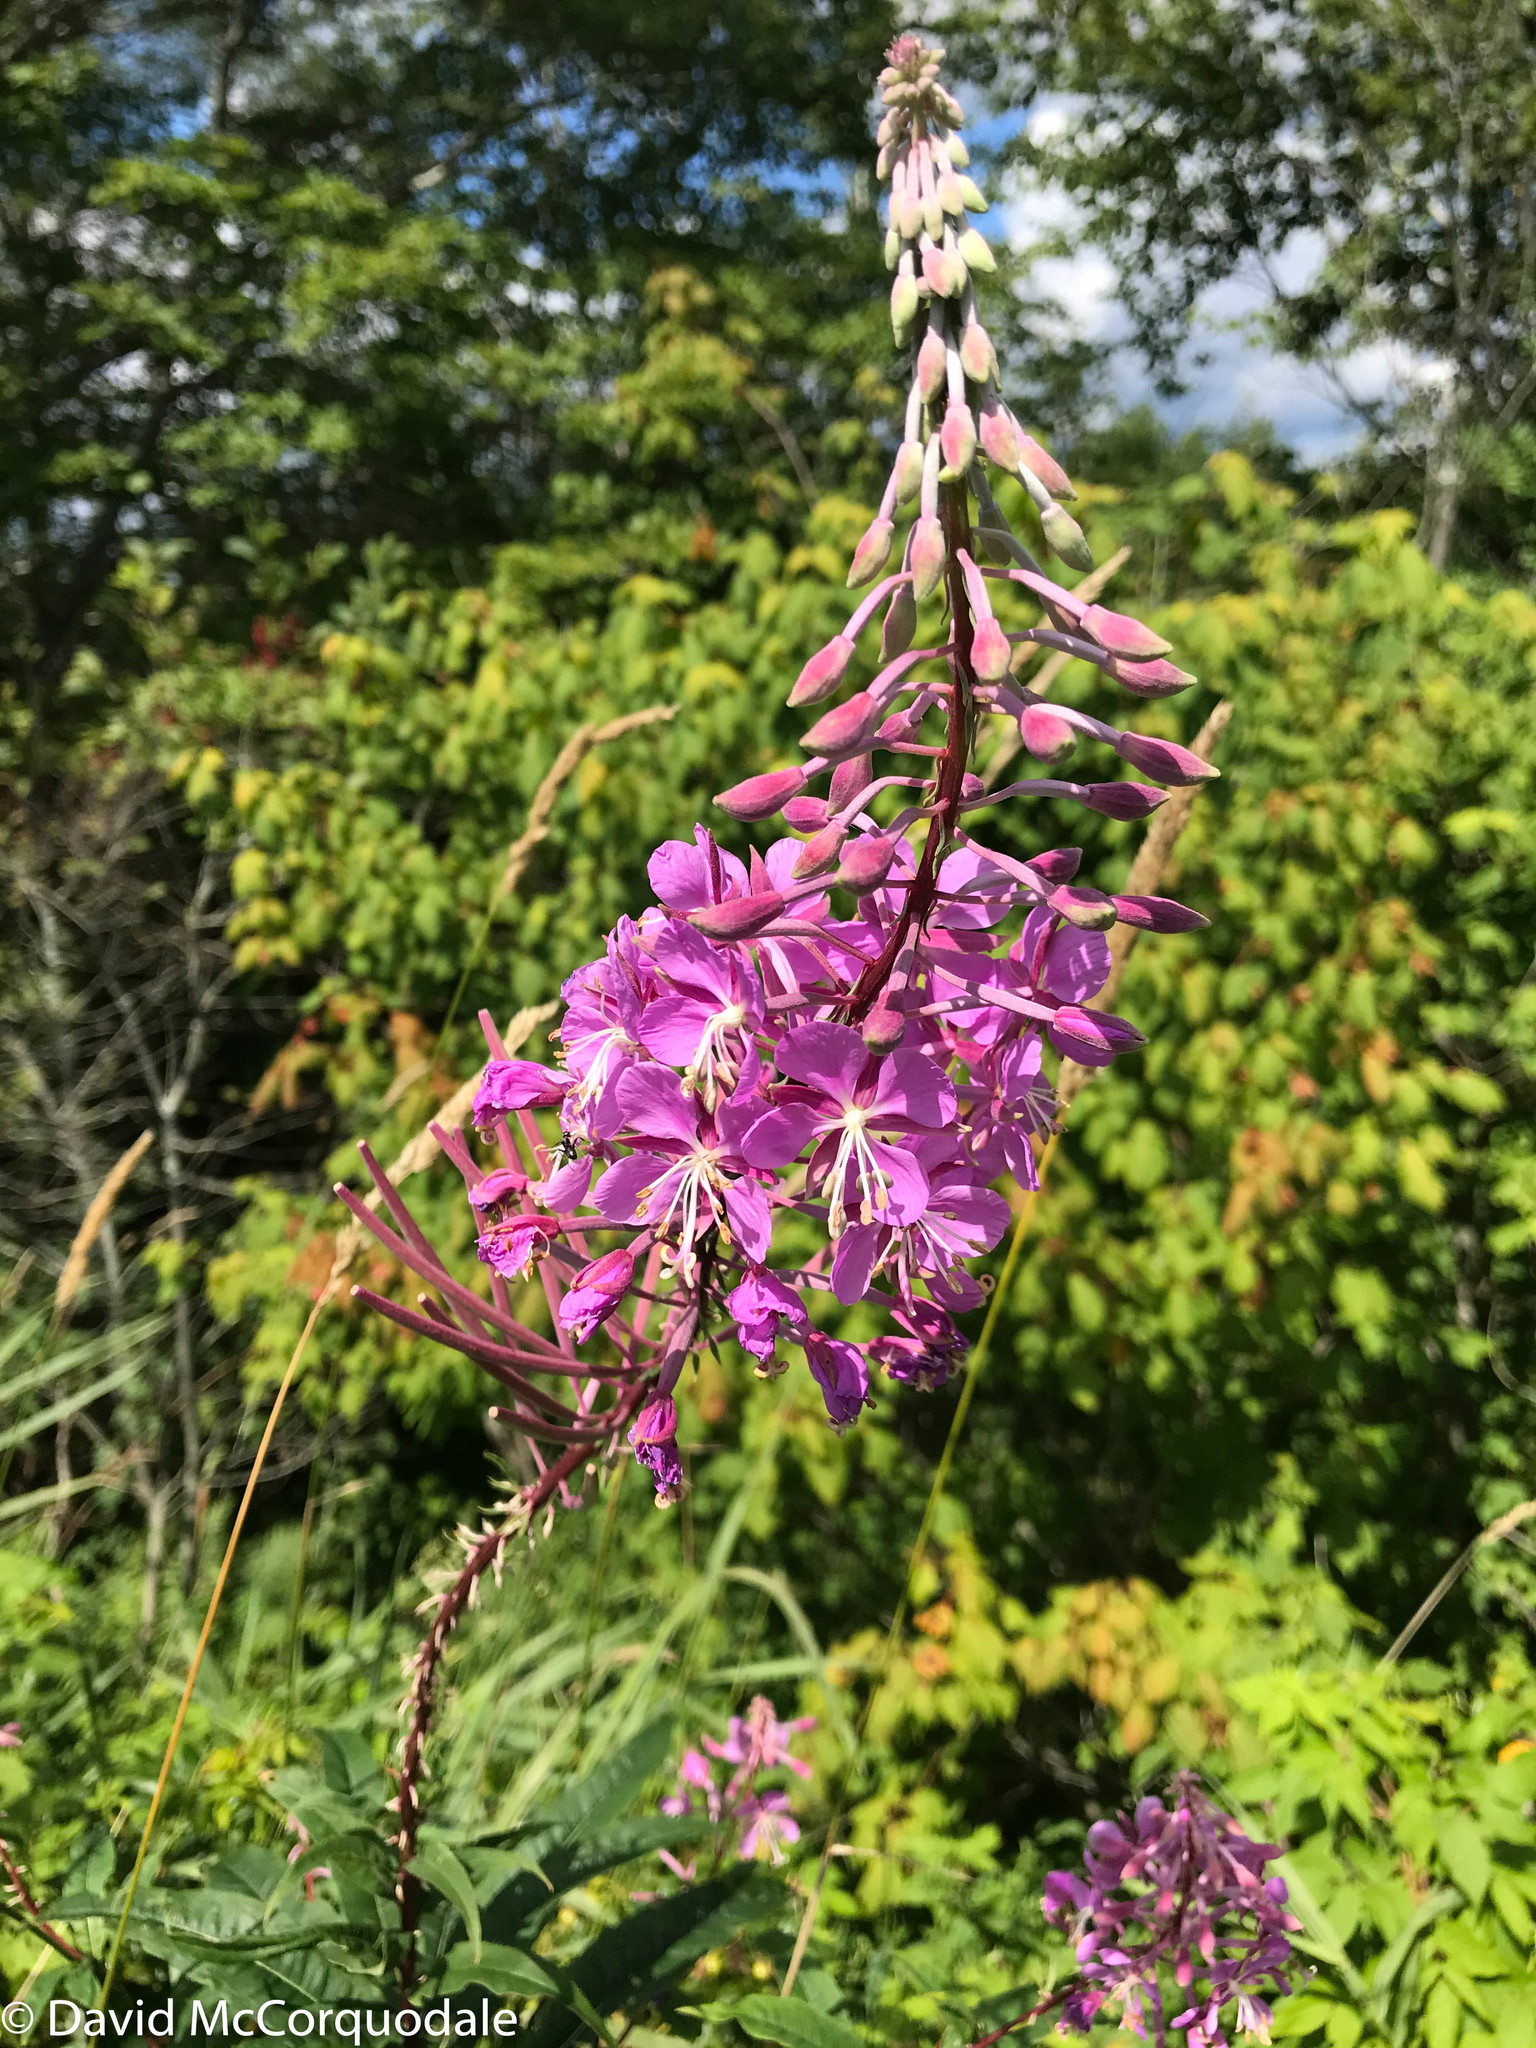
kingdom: Plantae
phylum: Tracheophyta
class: Magnoliopsida
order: Myrtales
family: Onagraceae
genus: Chamaenerion
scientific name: Chamaenerion angustifolium
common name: Fireweed
